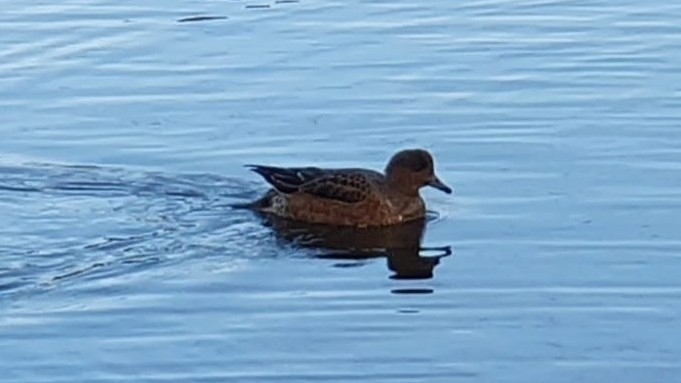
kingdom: Animalia
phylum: Chordata
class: Aves
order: Anseriformes
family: Anatidae
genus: Mareca
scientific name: Mareca penelope
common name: Eurasian wigeon
